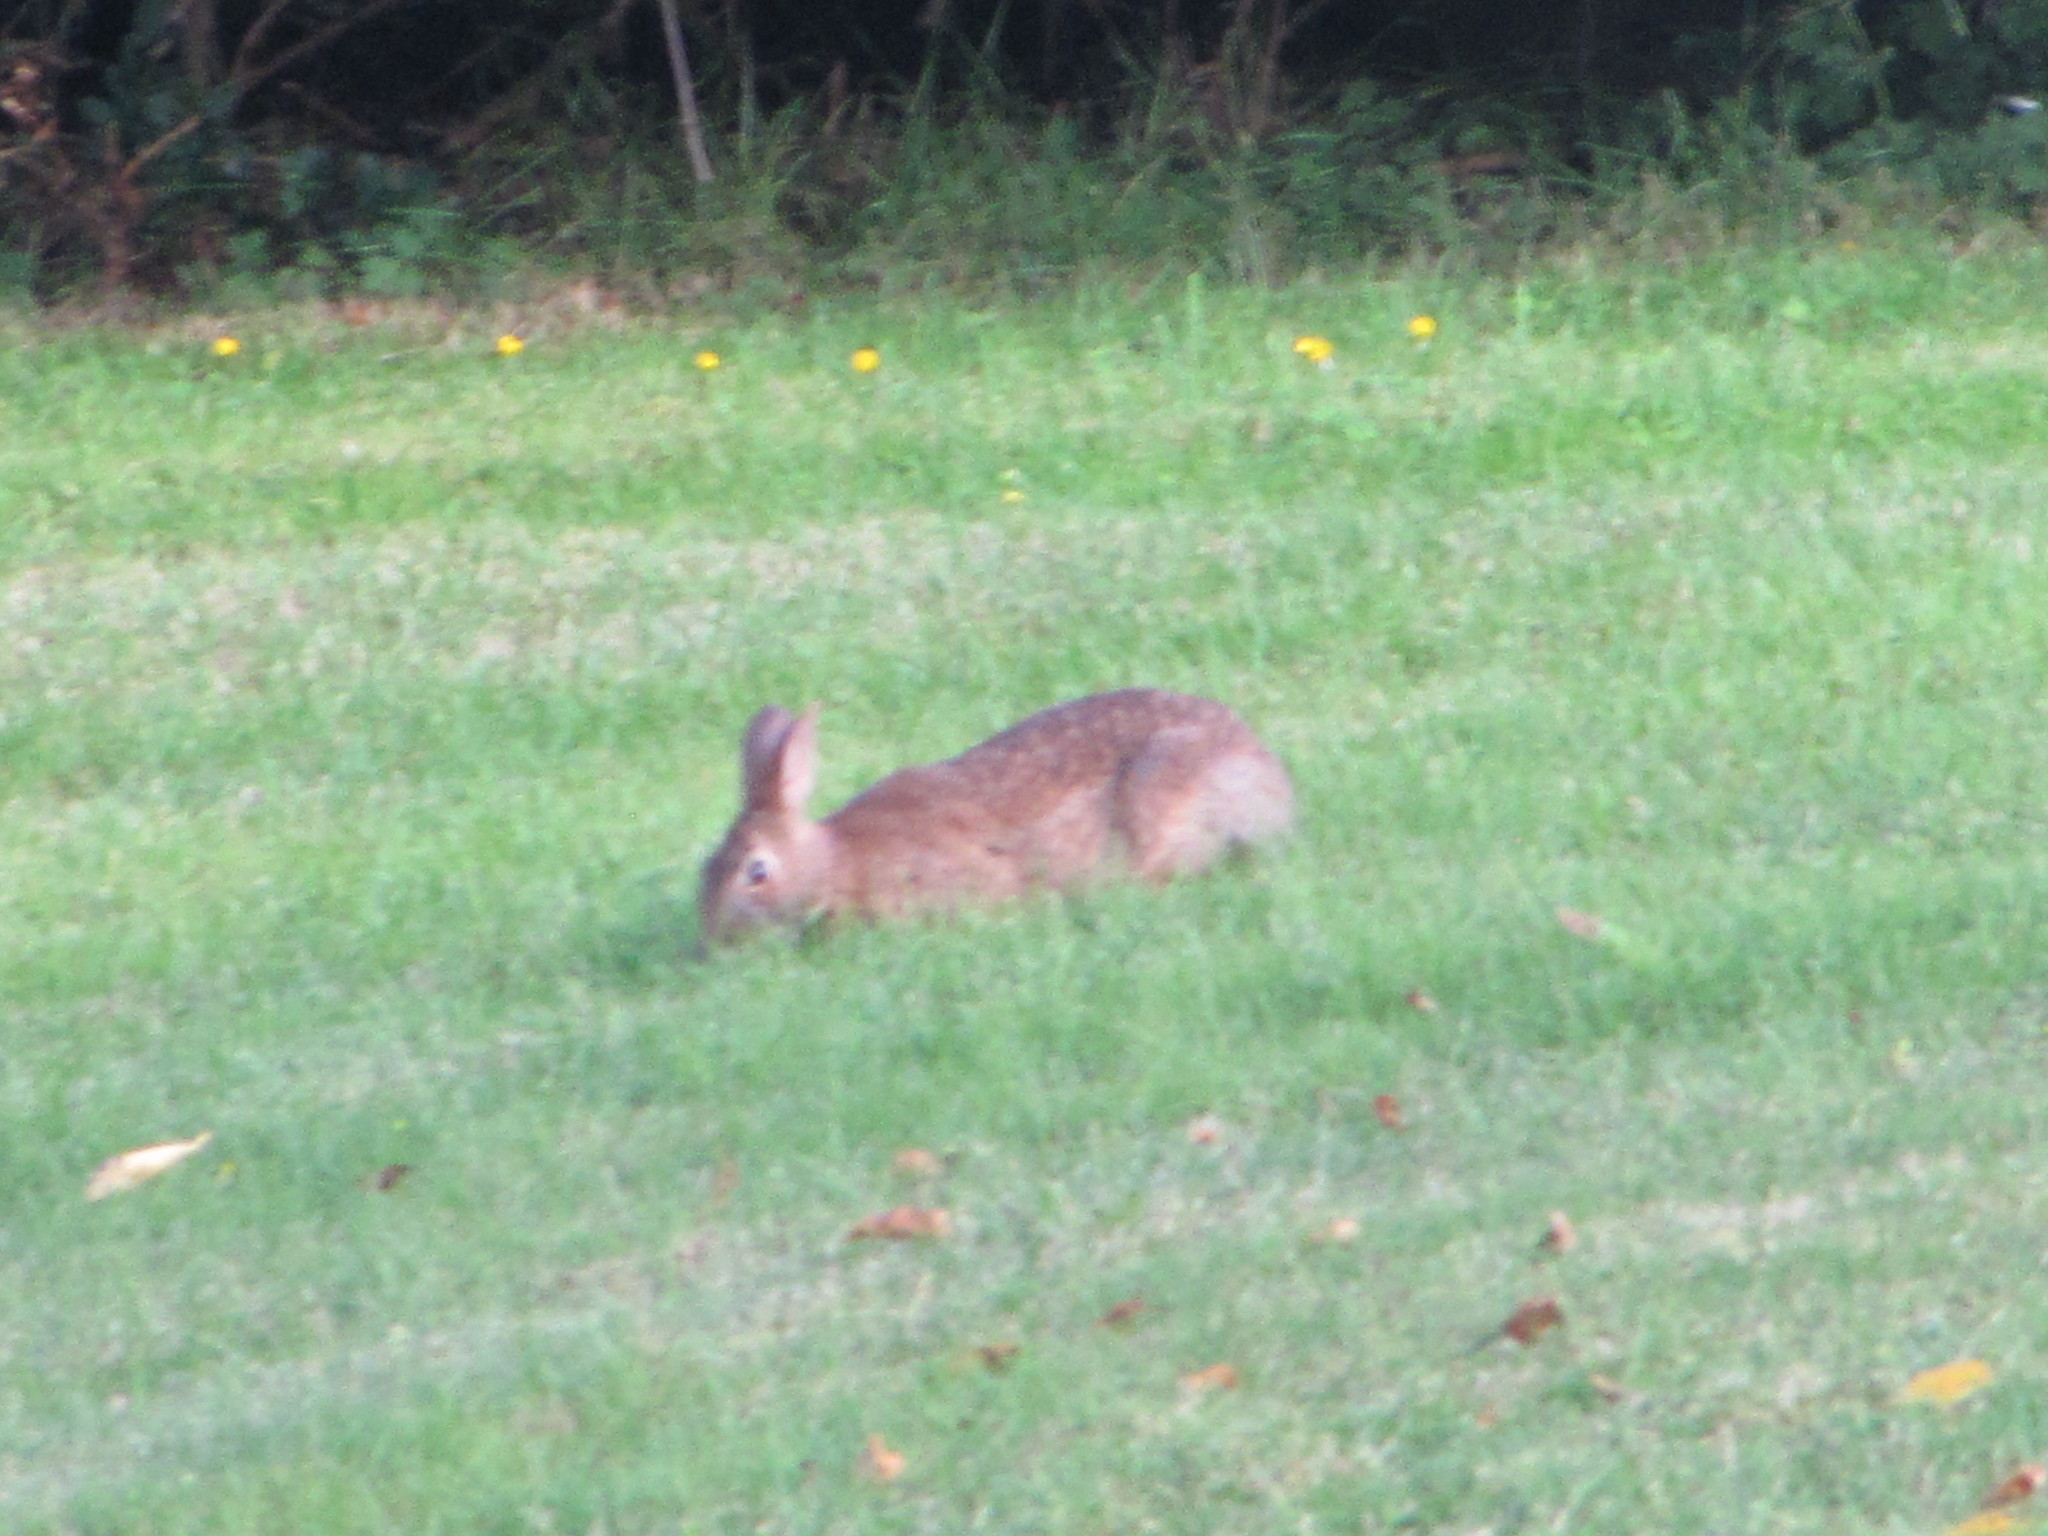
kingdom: Animalia
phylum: Chordata
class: Mammalia
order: Lagomorpha
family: Leporidae
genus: Sylvilagus
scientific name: Sylvilagus floridanus
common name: Eastern cottontail
